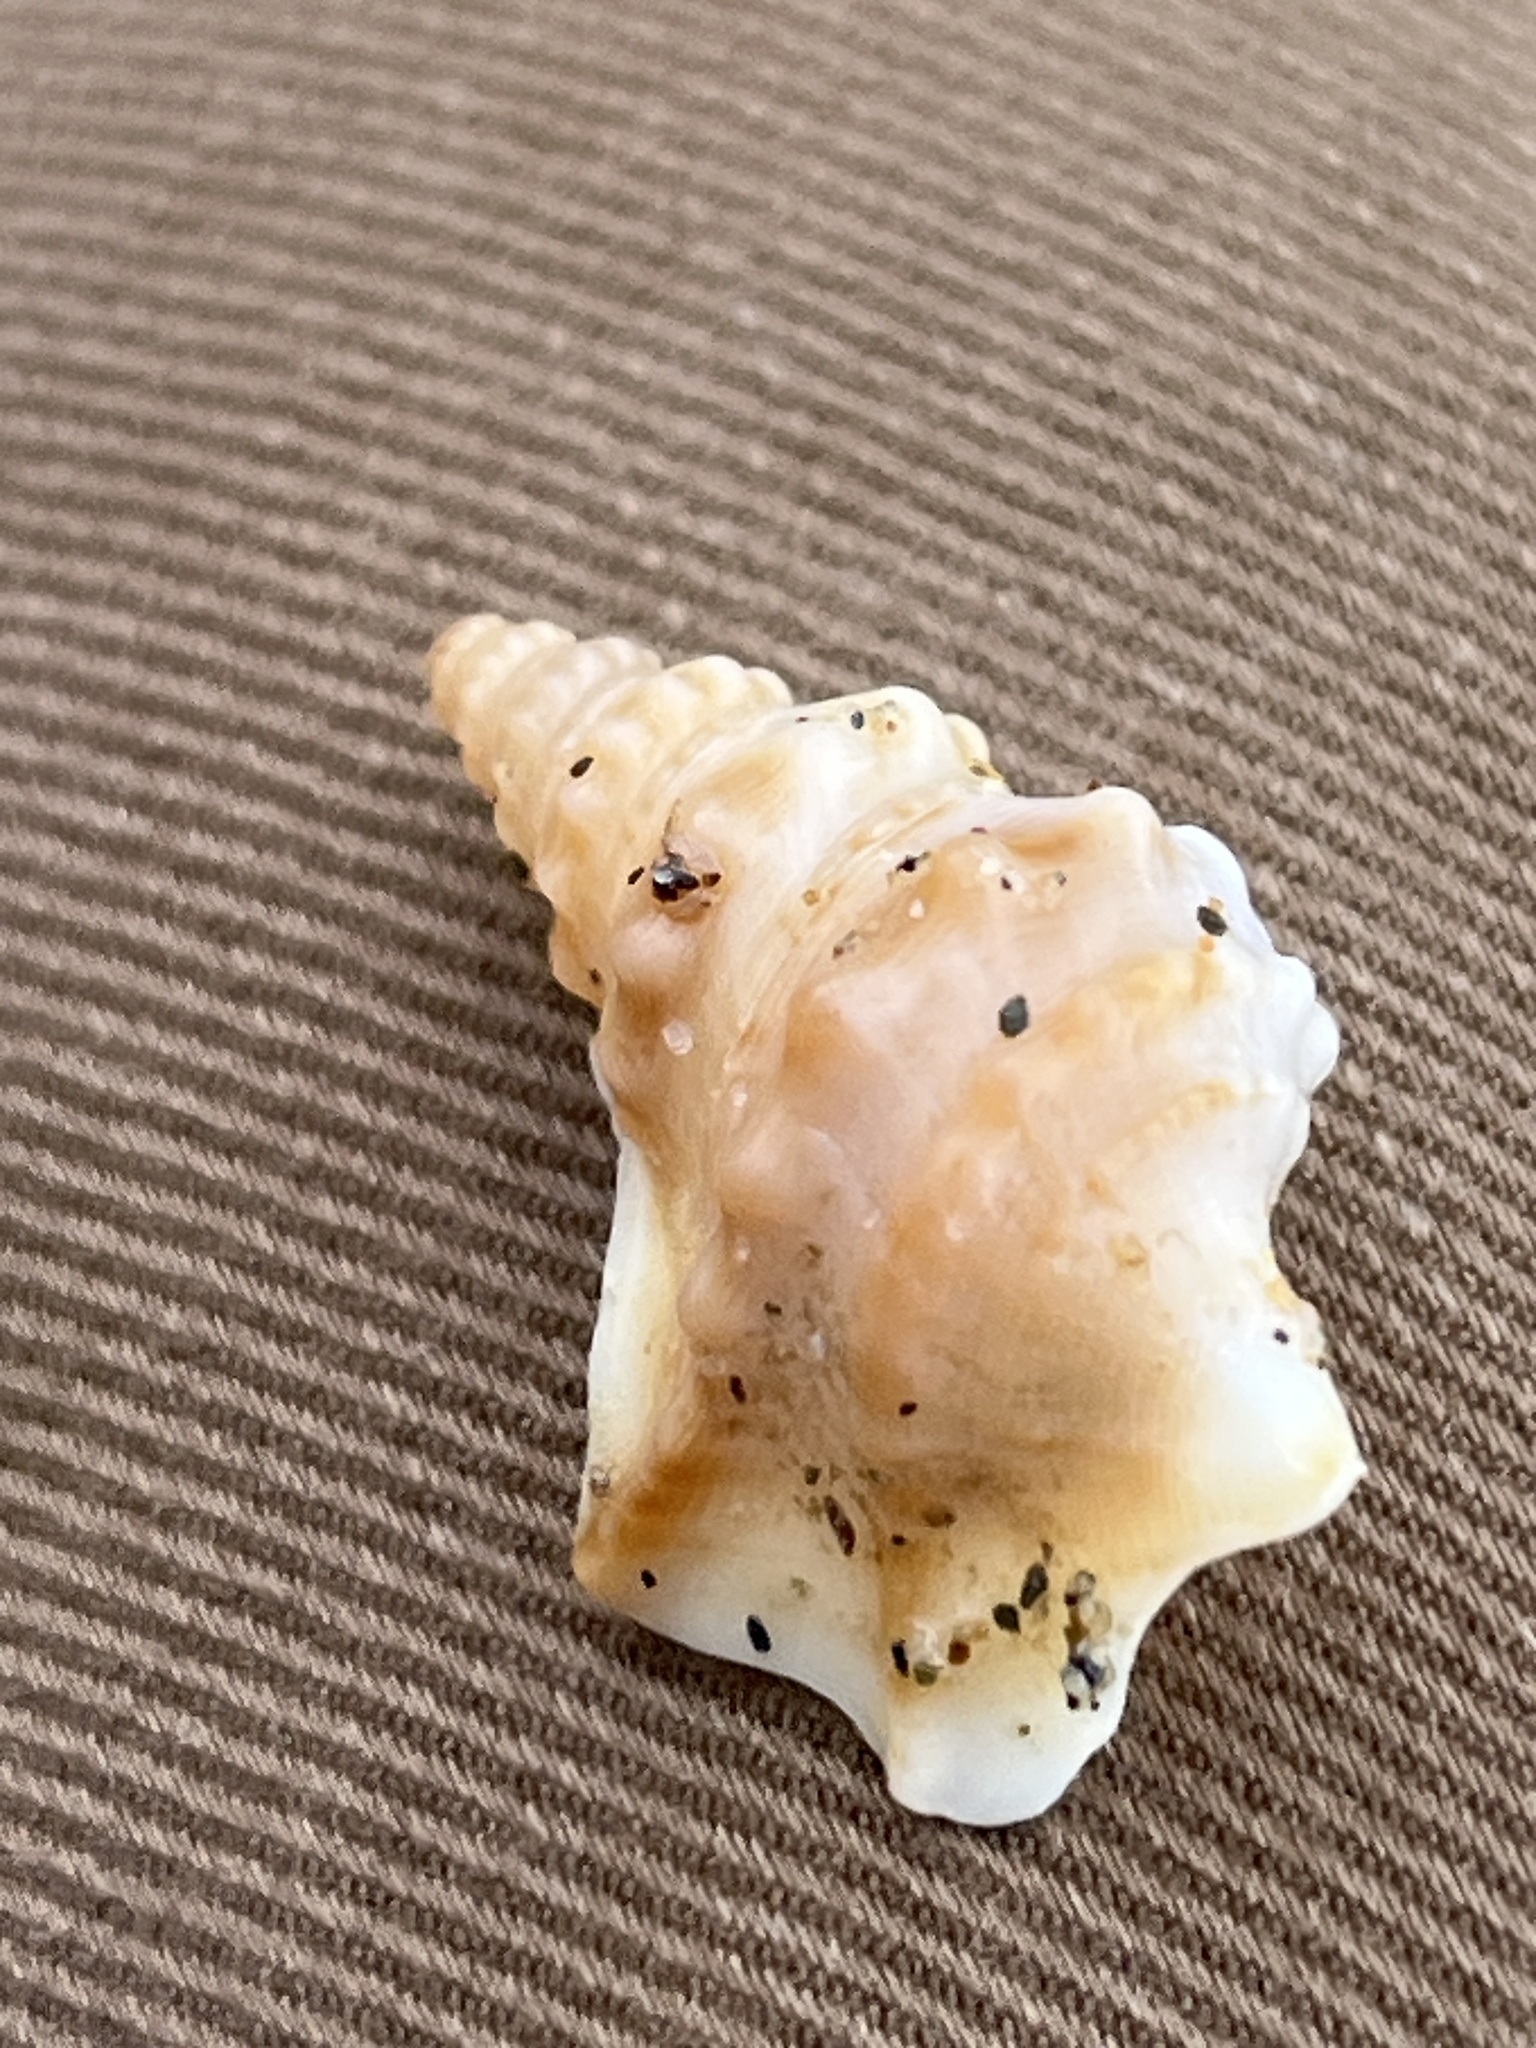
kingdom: Animalia
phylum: Mollusca
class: Gastropoda
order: Littorinimorpha
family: Aporrhaidae
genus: Aporrhais
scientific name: Aporrhais pespelecani
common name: Common pelican’s foot
